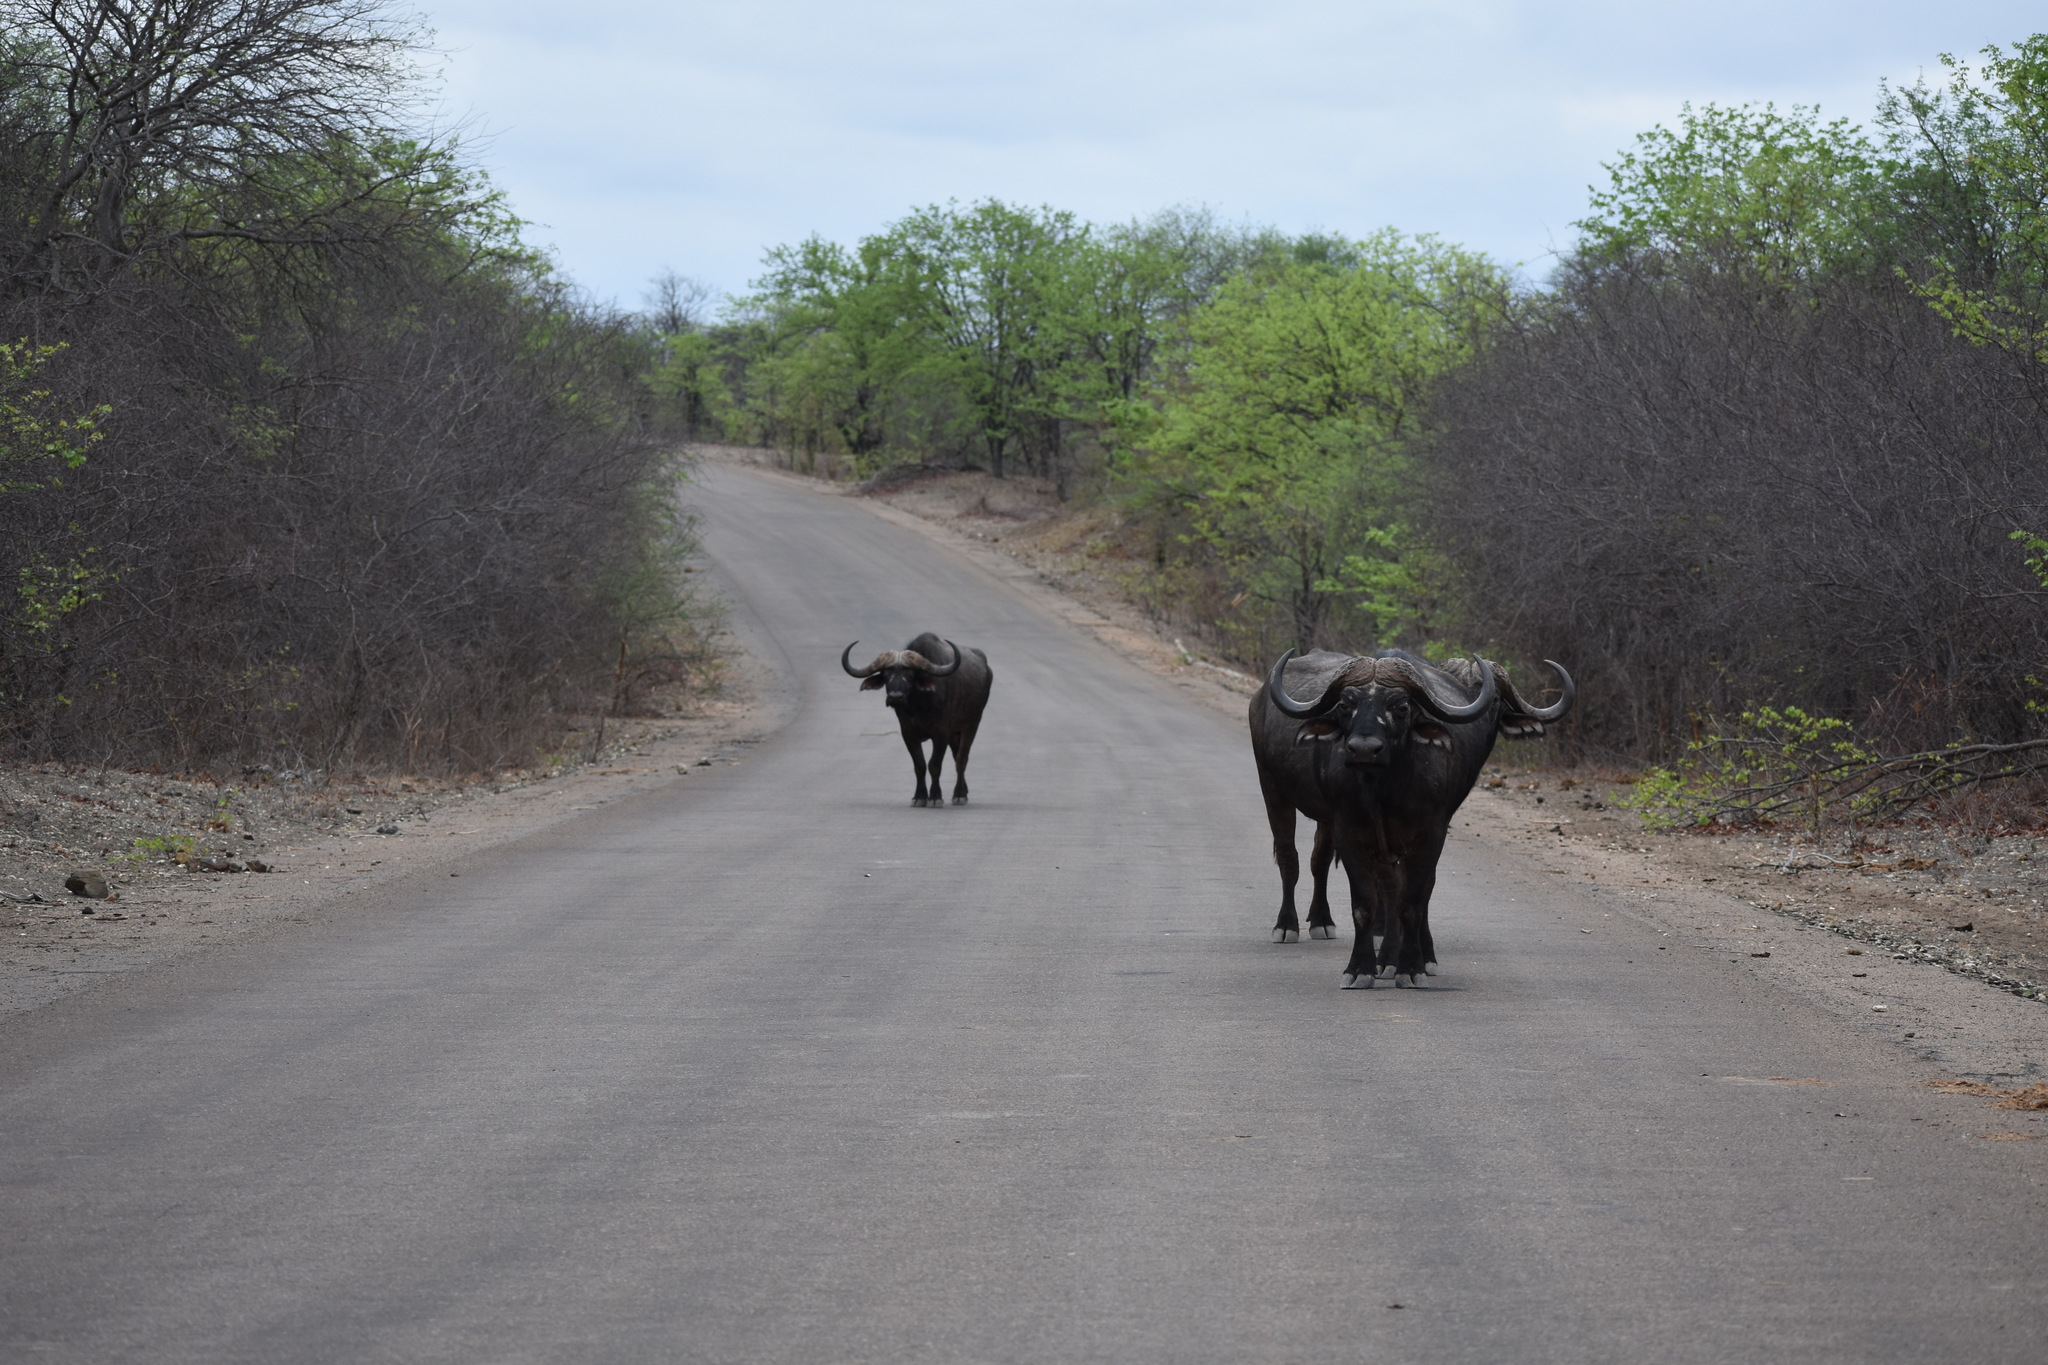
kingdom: Animalia
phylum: Chordata
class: Mammalia
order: Artiodactyla
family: Bovidae
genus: Syncerus
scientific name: Syncerus caffer
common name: African buffalo
